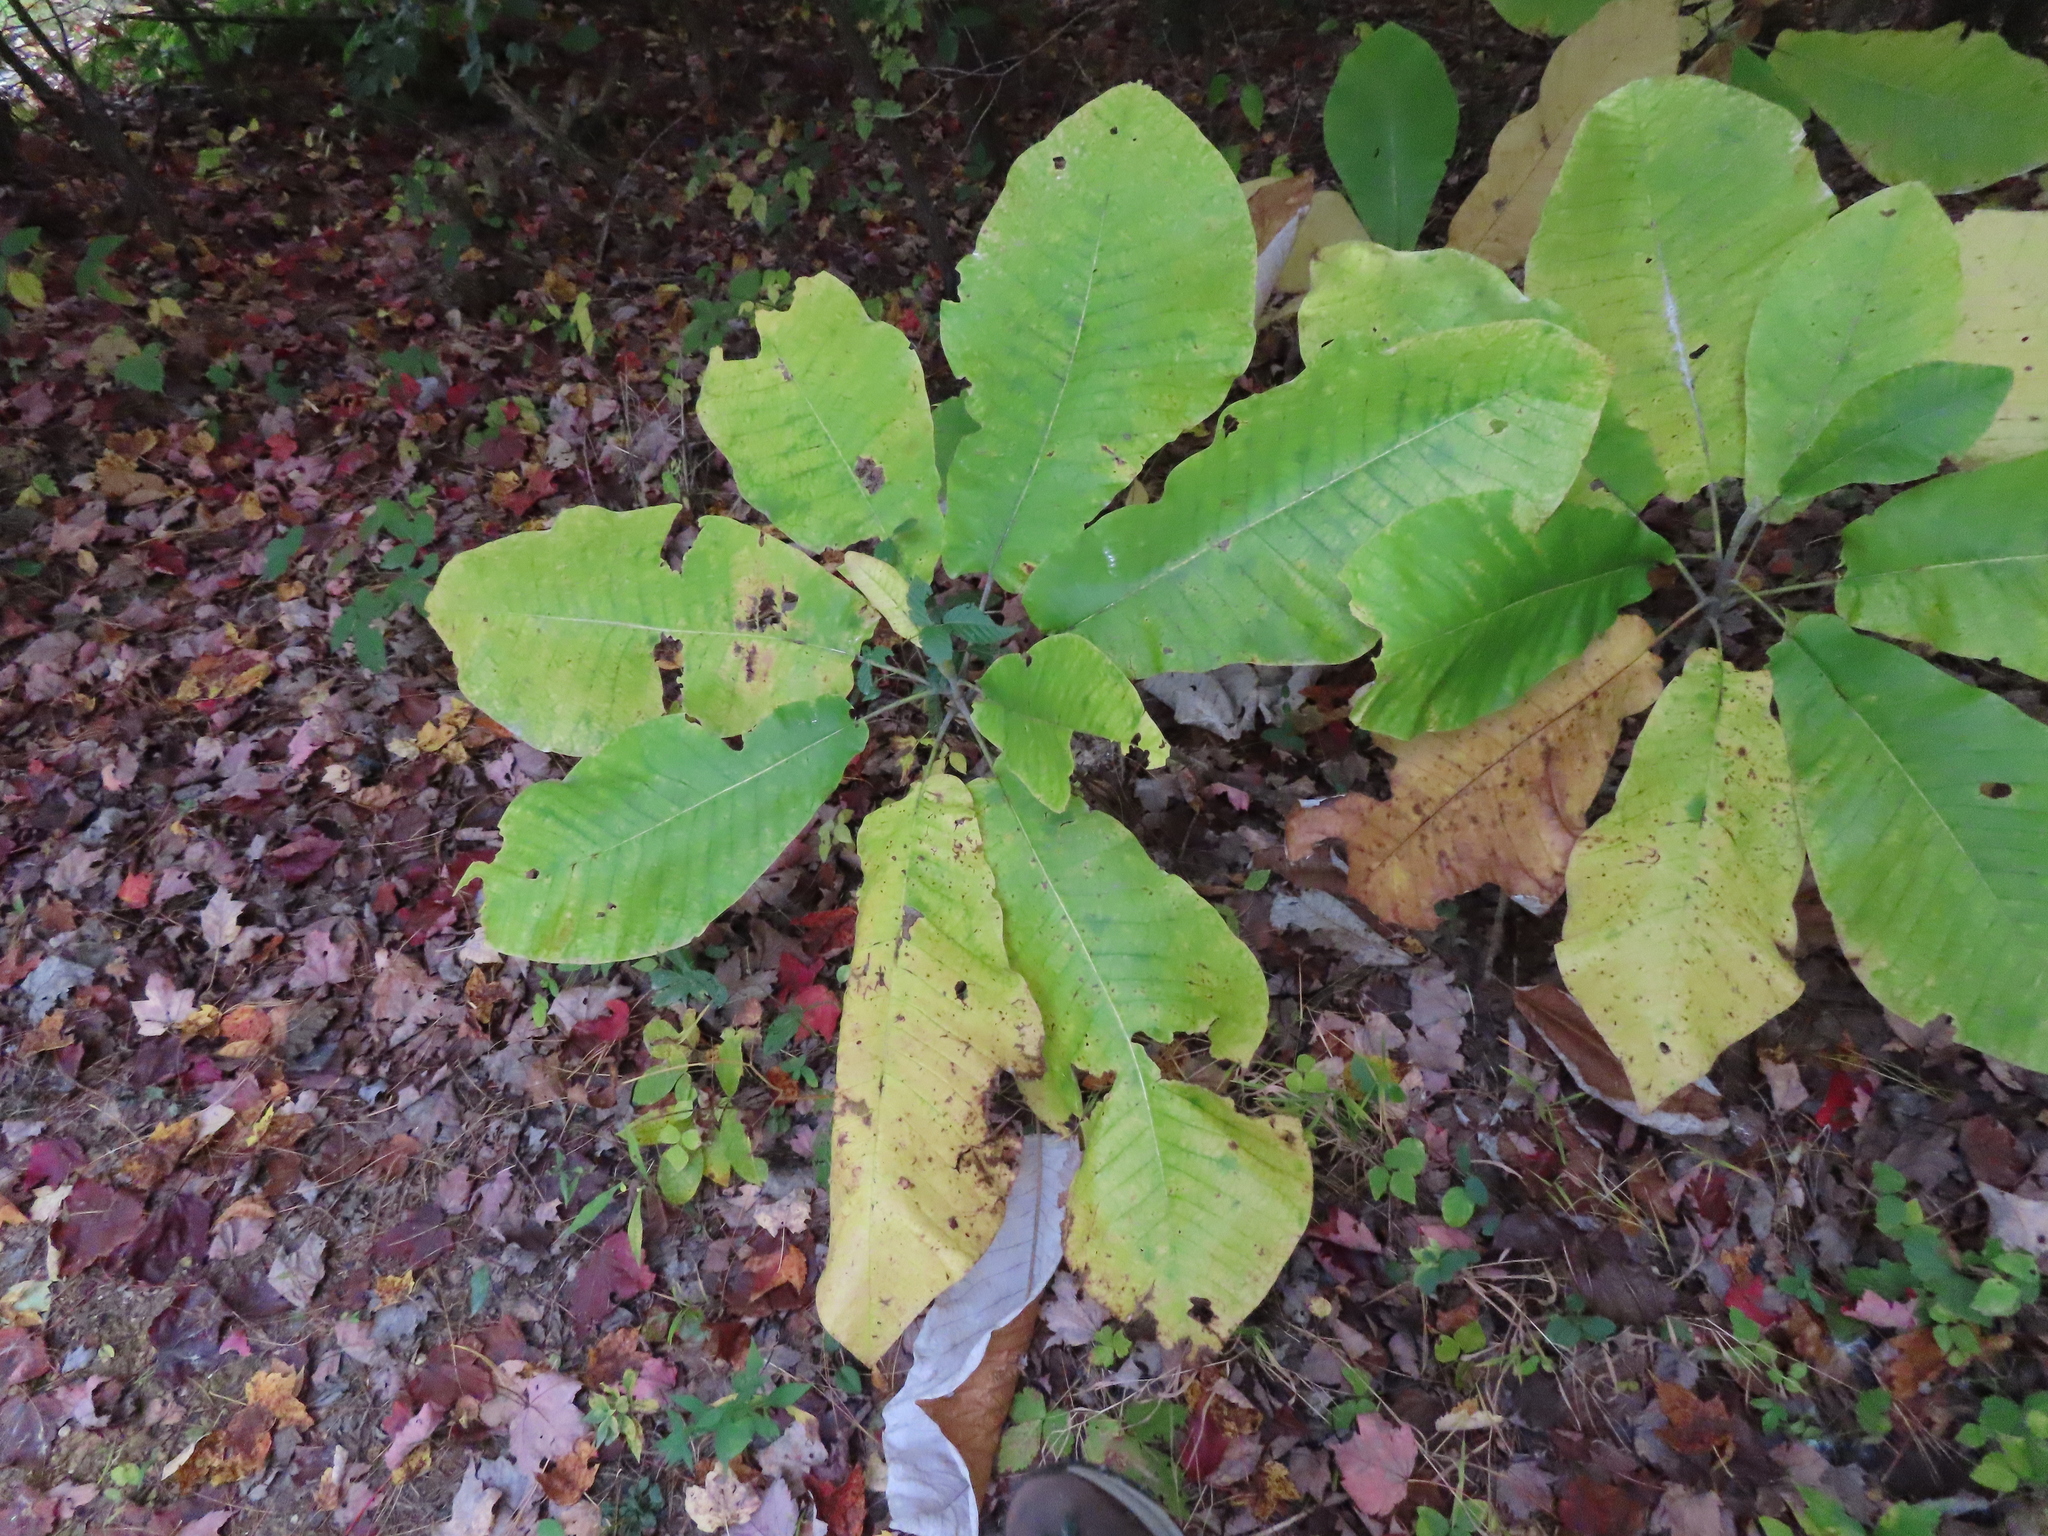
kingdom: Plantae
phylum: Tracheophyta
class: Magnoliopsida
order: Magnoliales
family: Magnoliaceae
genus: Magnolia
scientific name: Magnolia macrophylla
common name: Big-leaf magnolia
